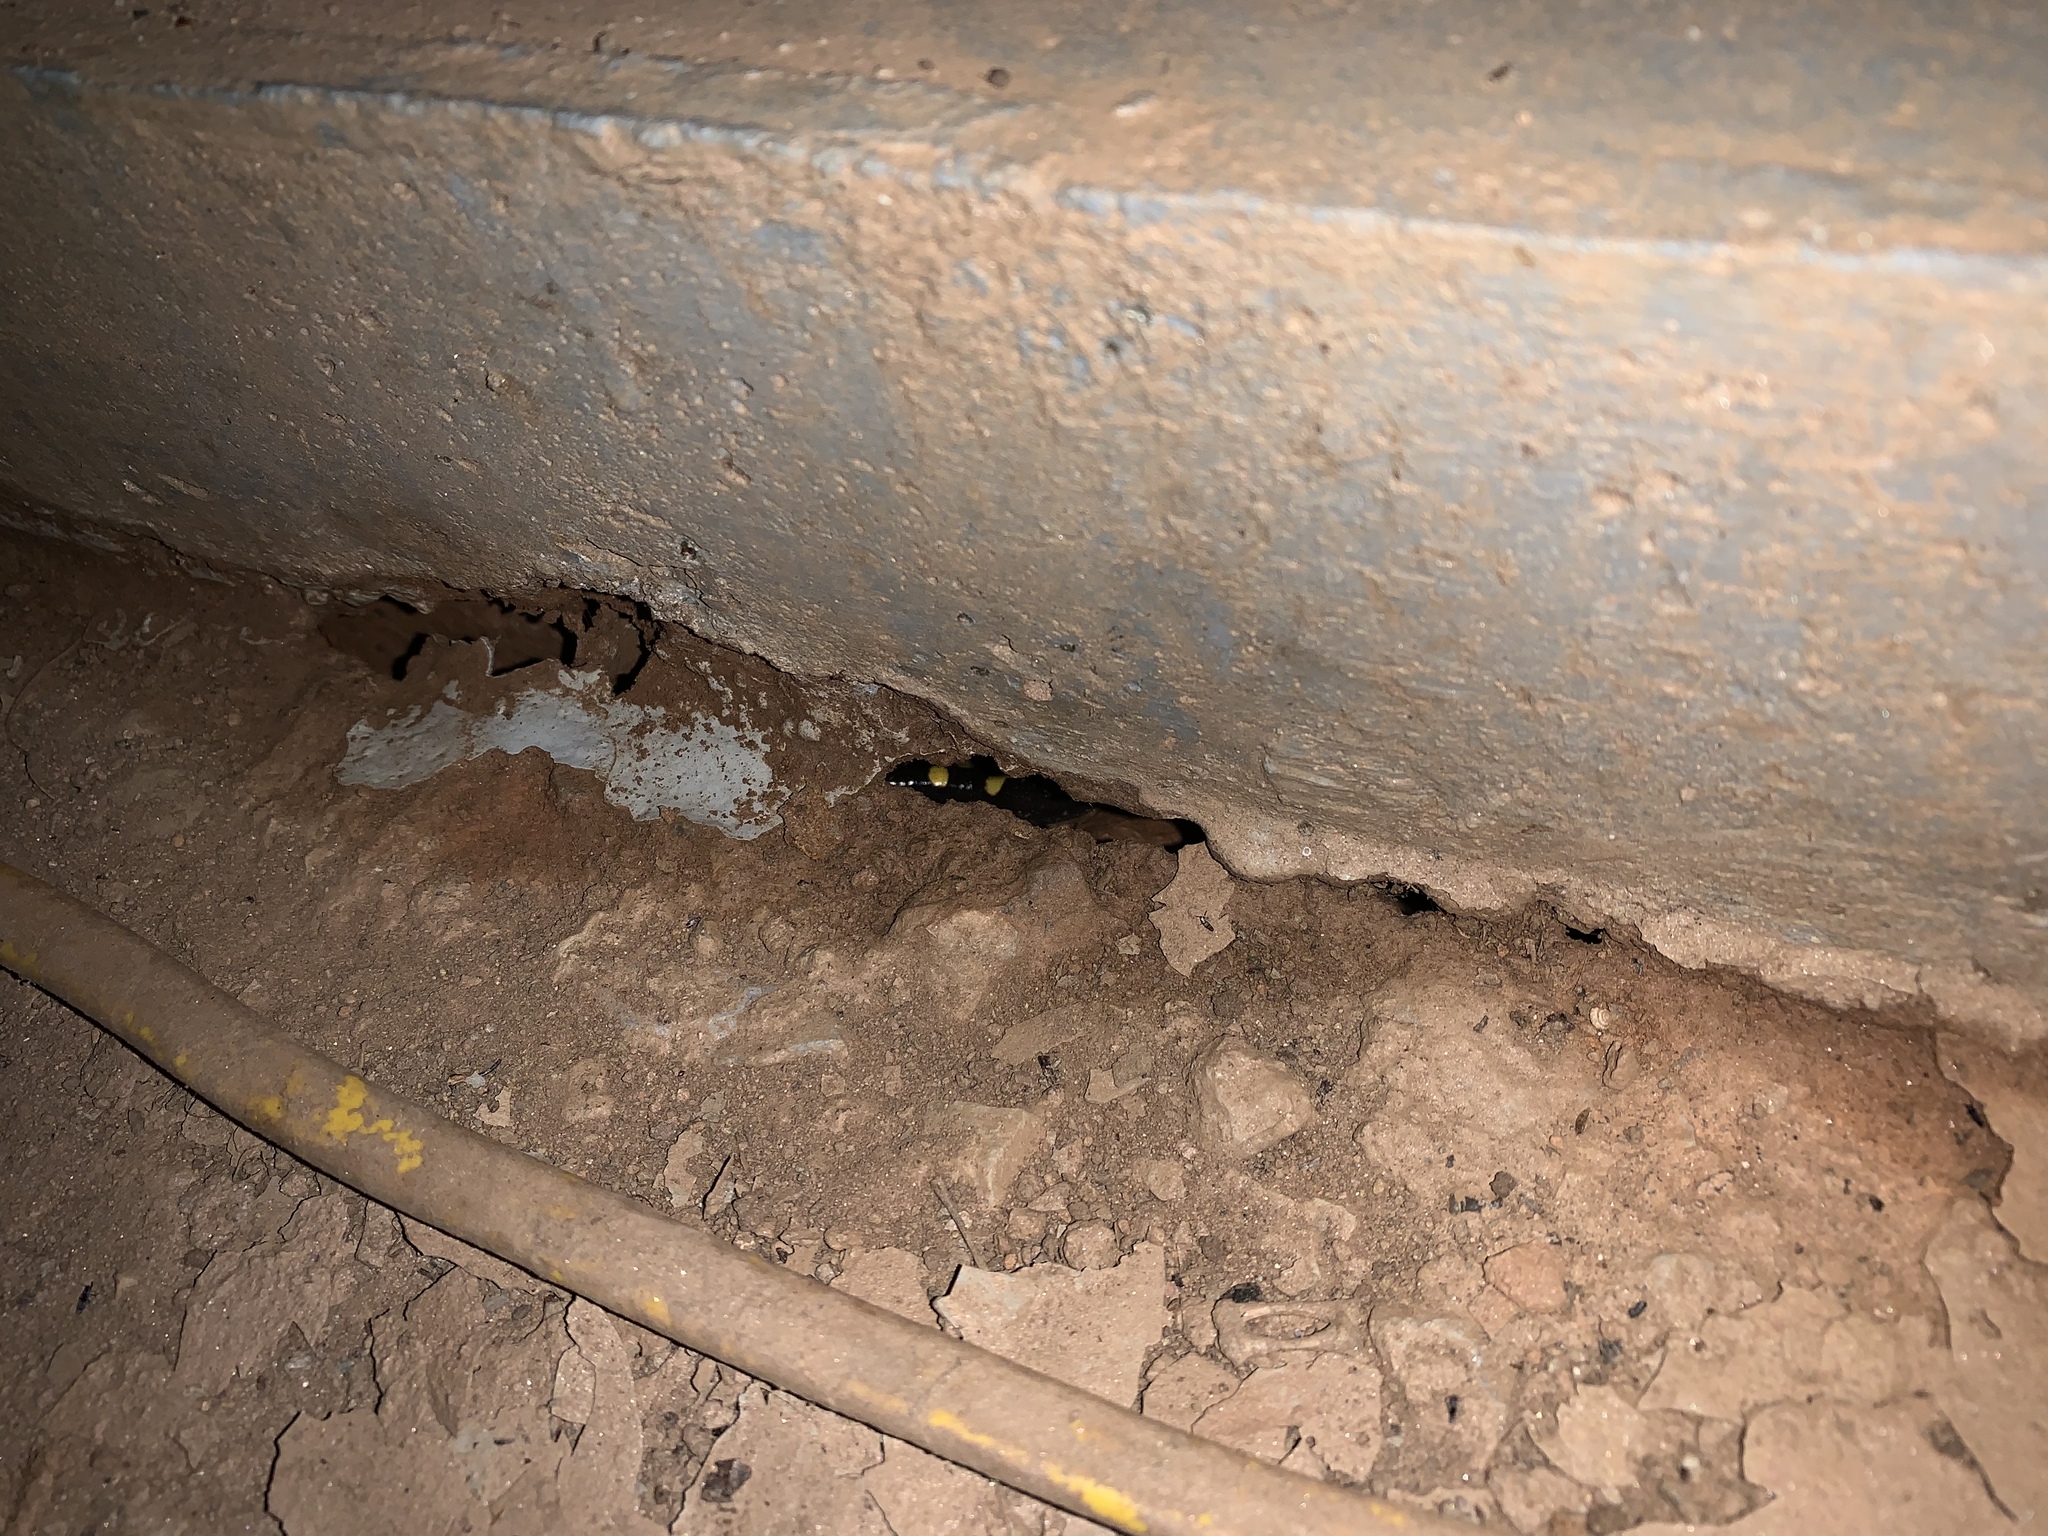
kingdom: Animalia
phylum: Chordata
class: Amphibia
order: Caudata
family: Ambystomatidae
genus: Ambystoma
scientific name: Ambystoma maculatum
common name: Spotted salamander
